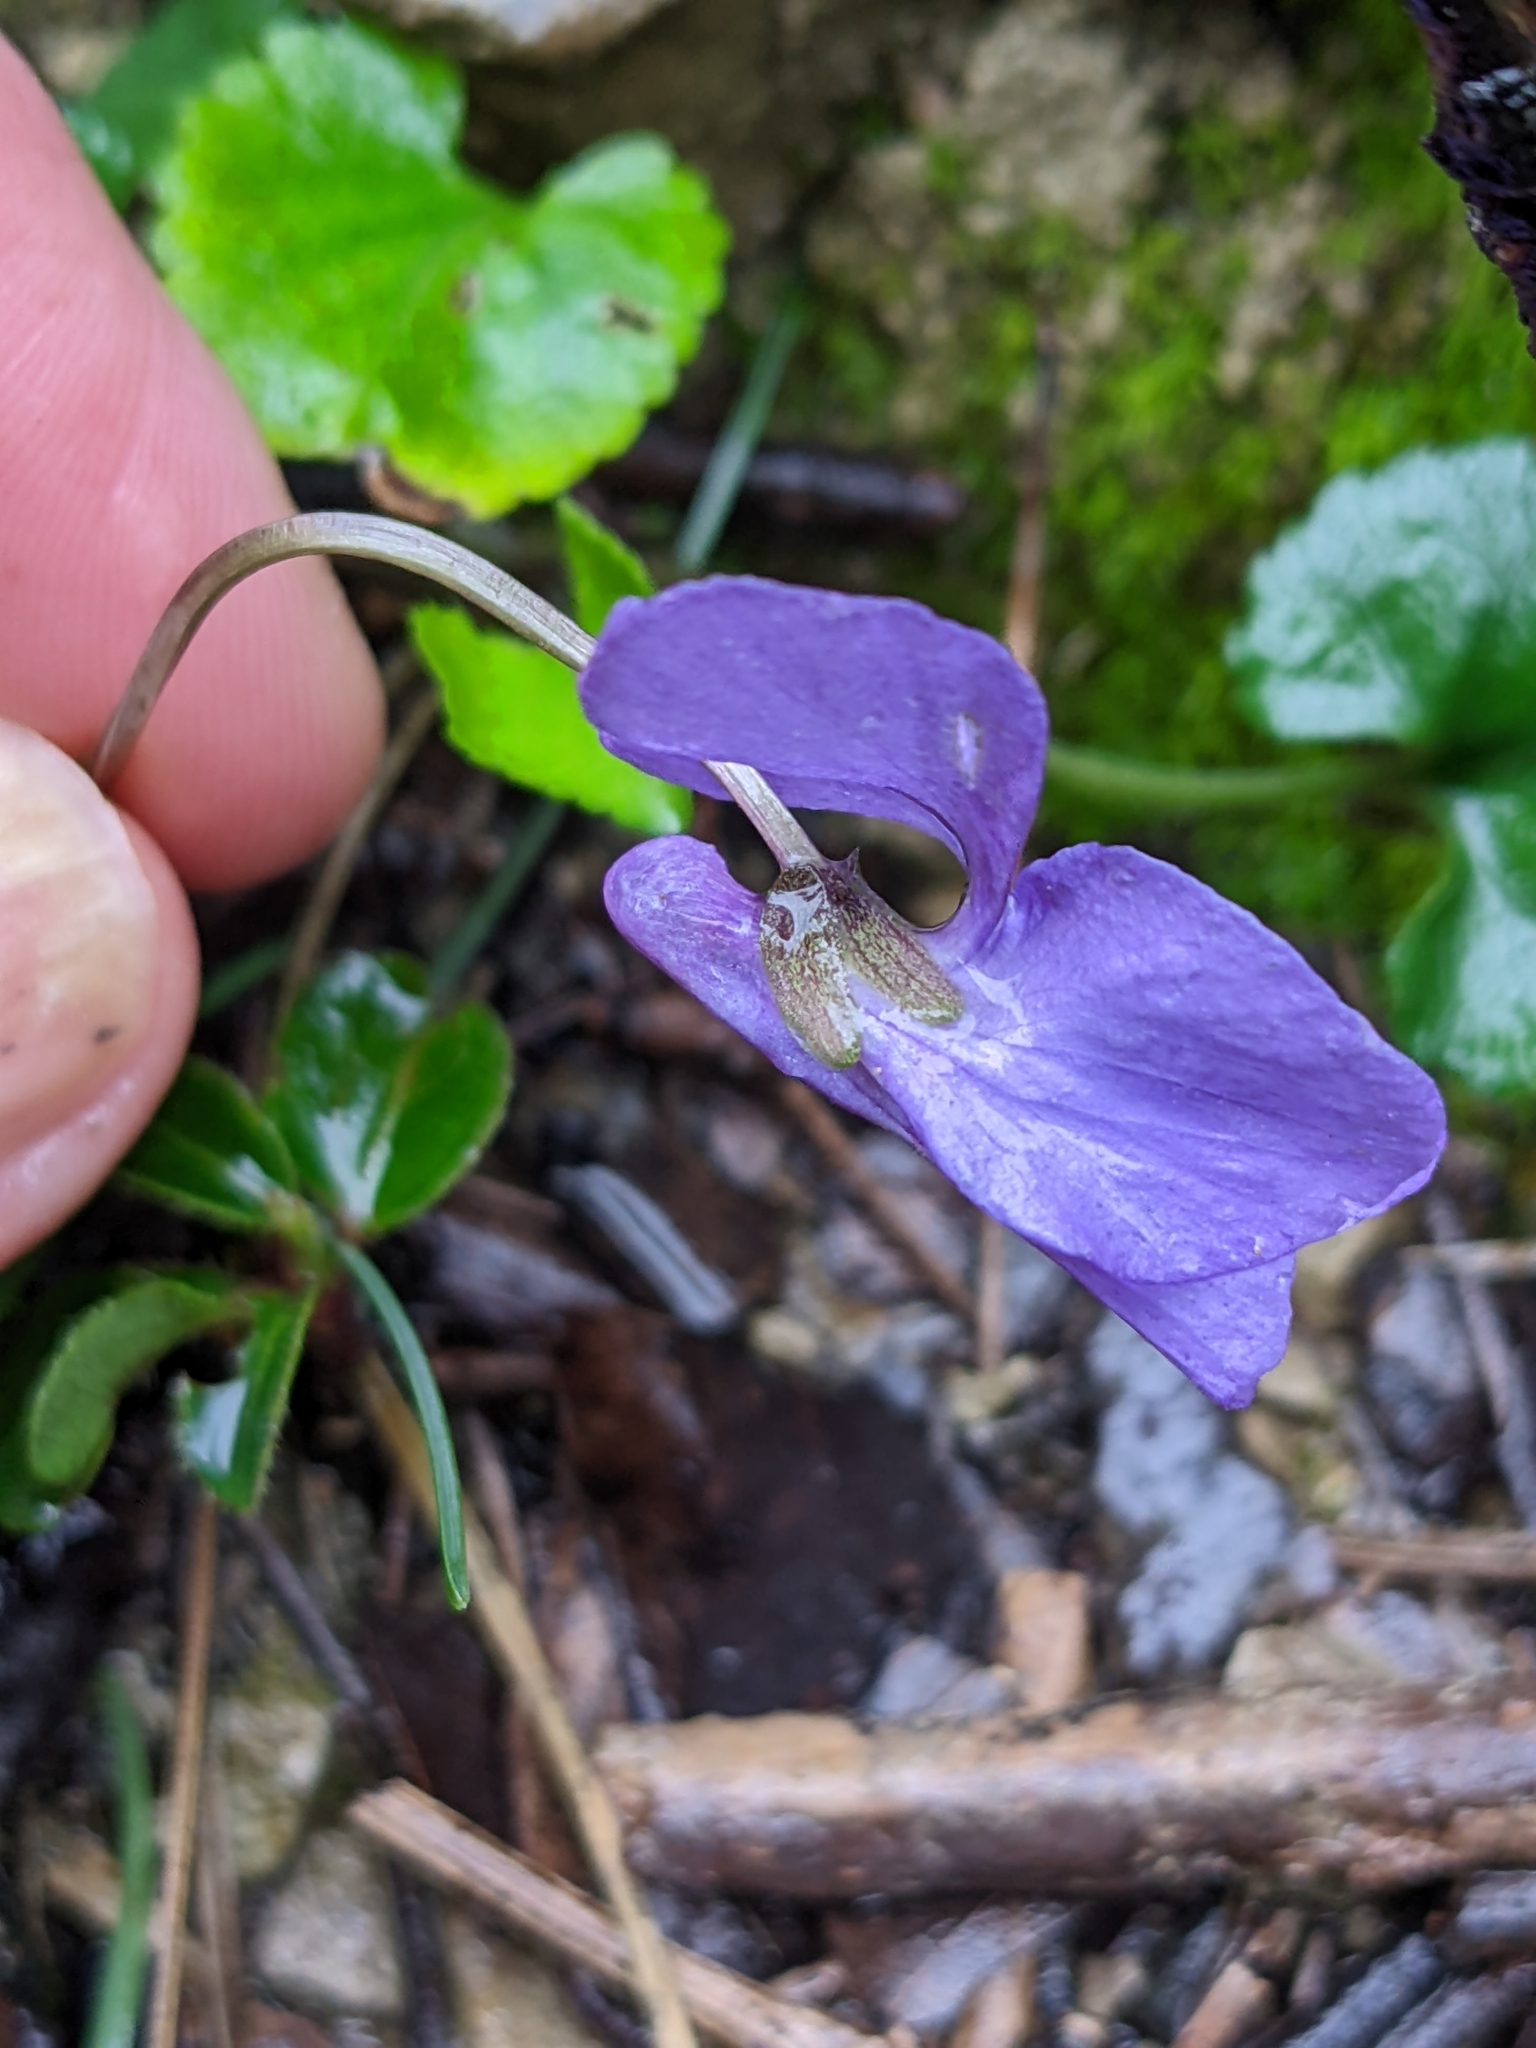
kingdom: Plantae
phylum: Tracheophyta
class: Magnoliopsida
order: Malpighiales
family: Violaceae
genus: Viola
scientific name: Viola alba
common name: White violet
